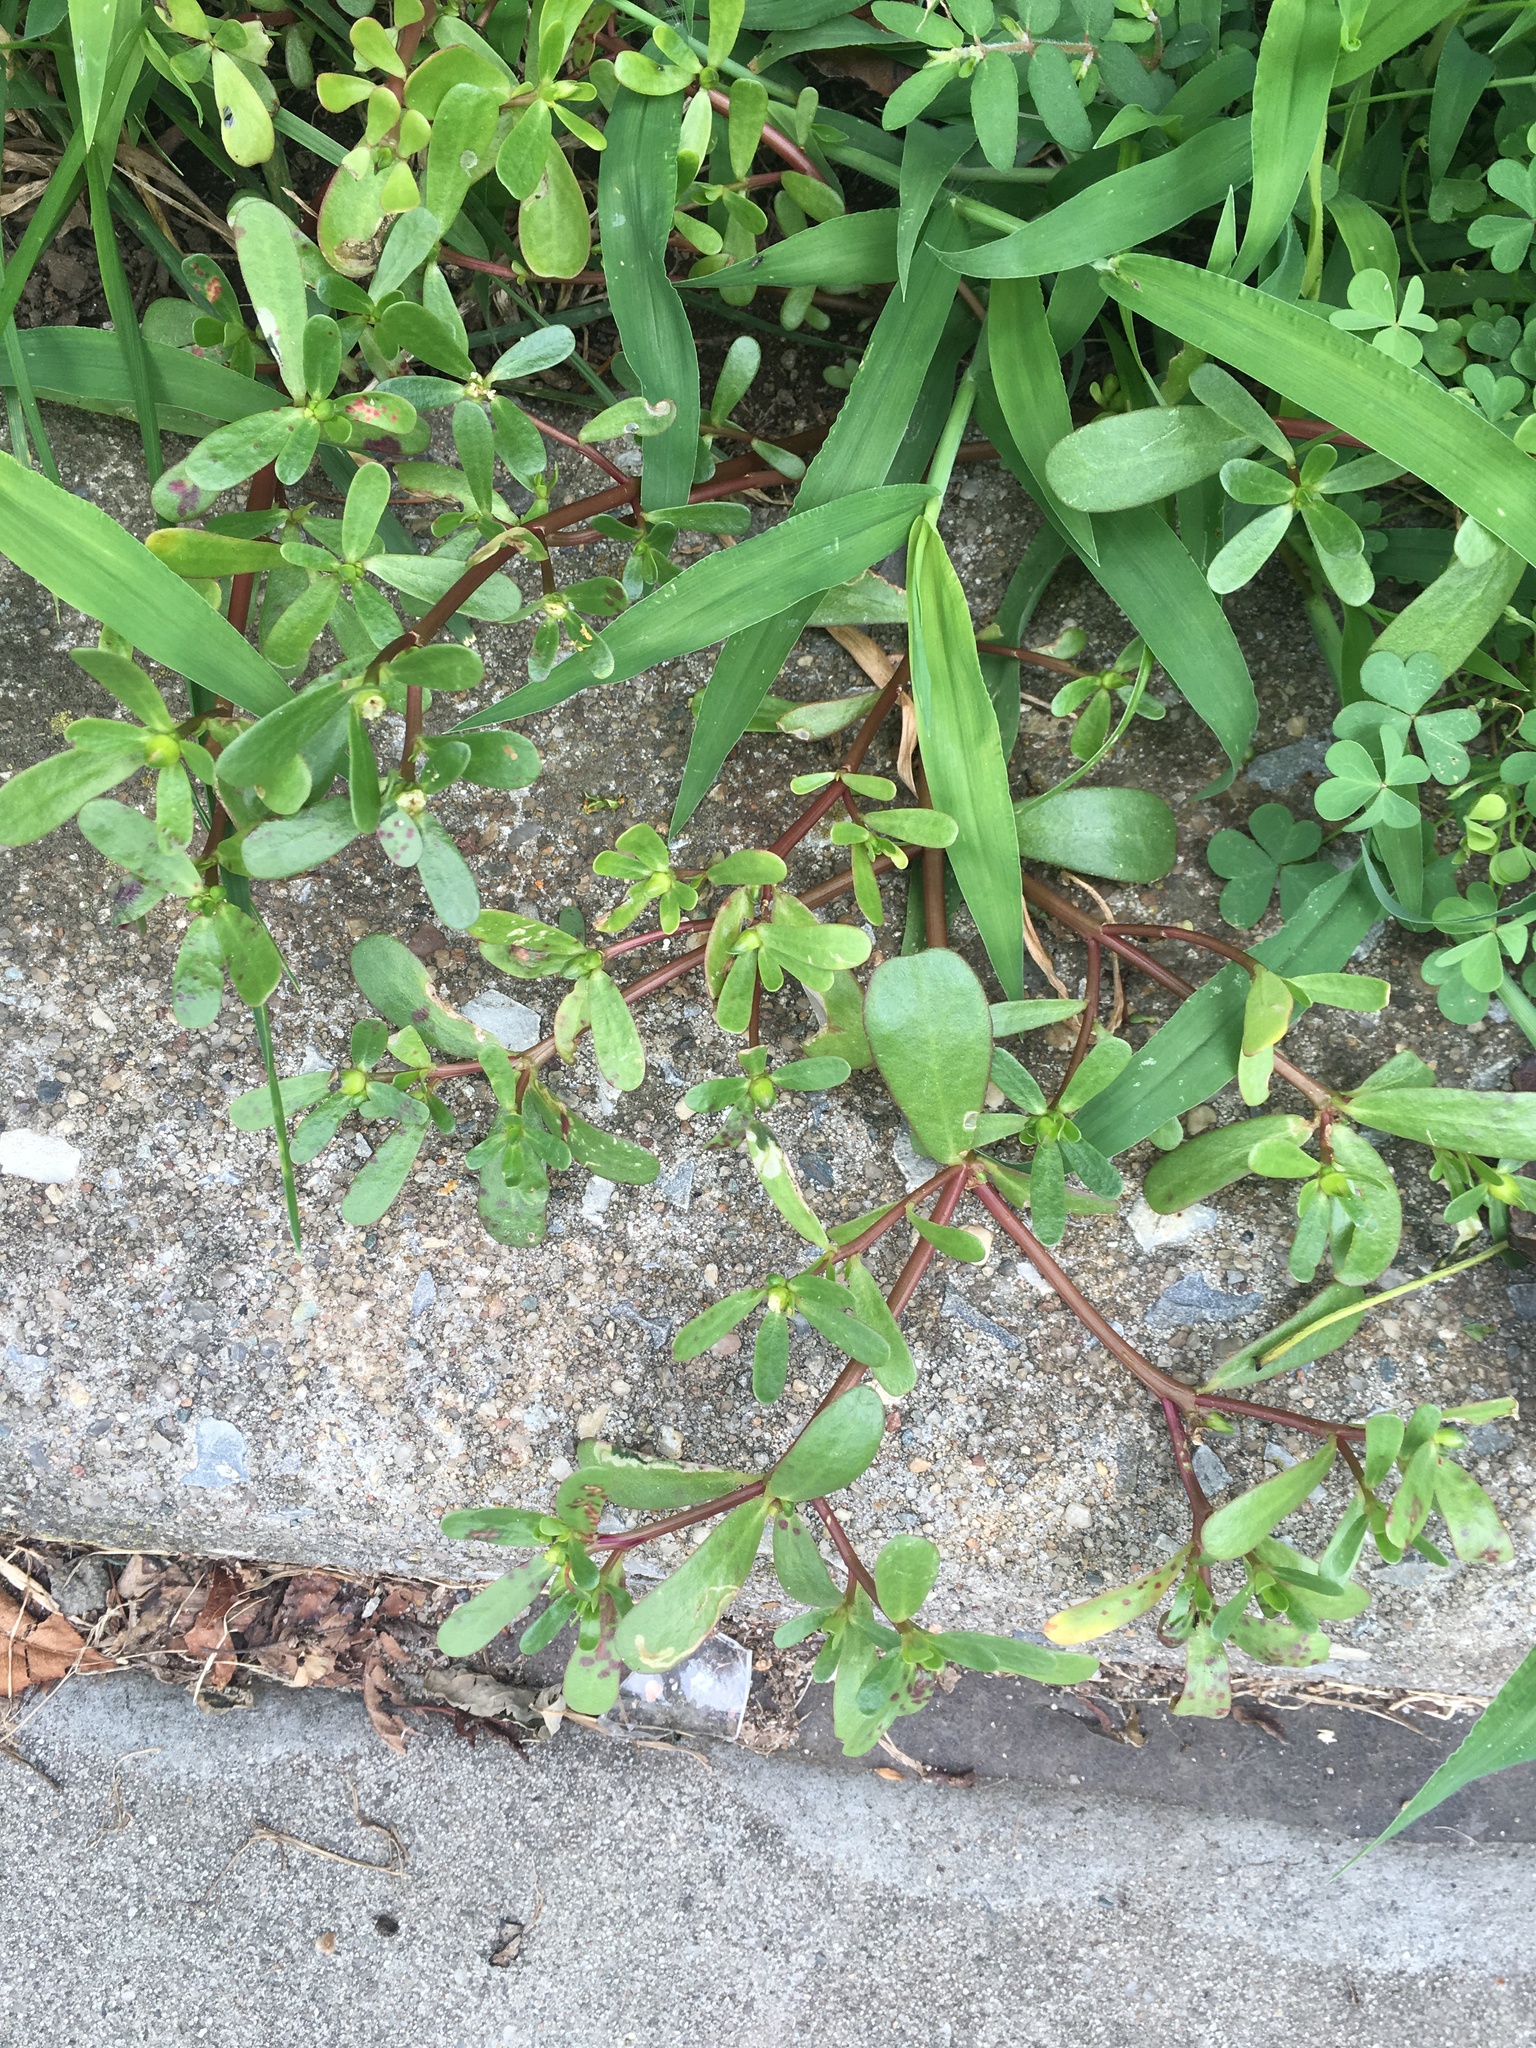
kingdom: Plantae
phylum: Tracheophyta
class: Magnoliopsida
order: Caryophyllales
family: Portulacaceae
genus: Portulaca
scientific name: Portulaca oleracea
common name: Common purslane
